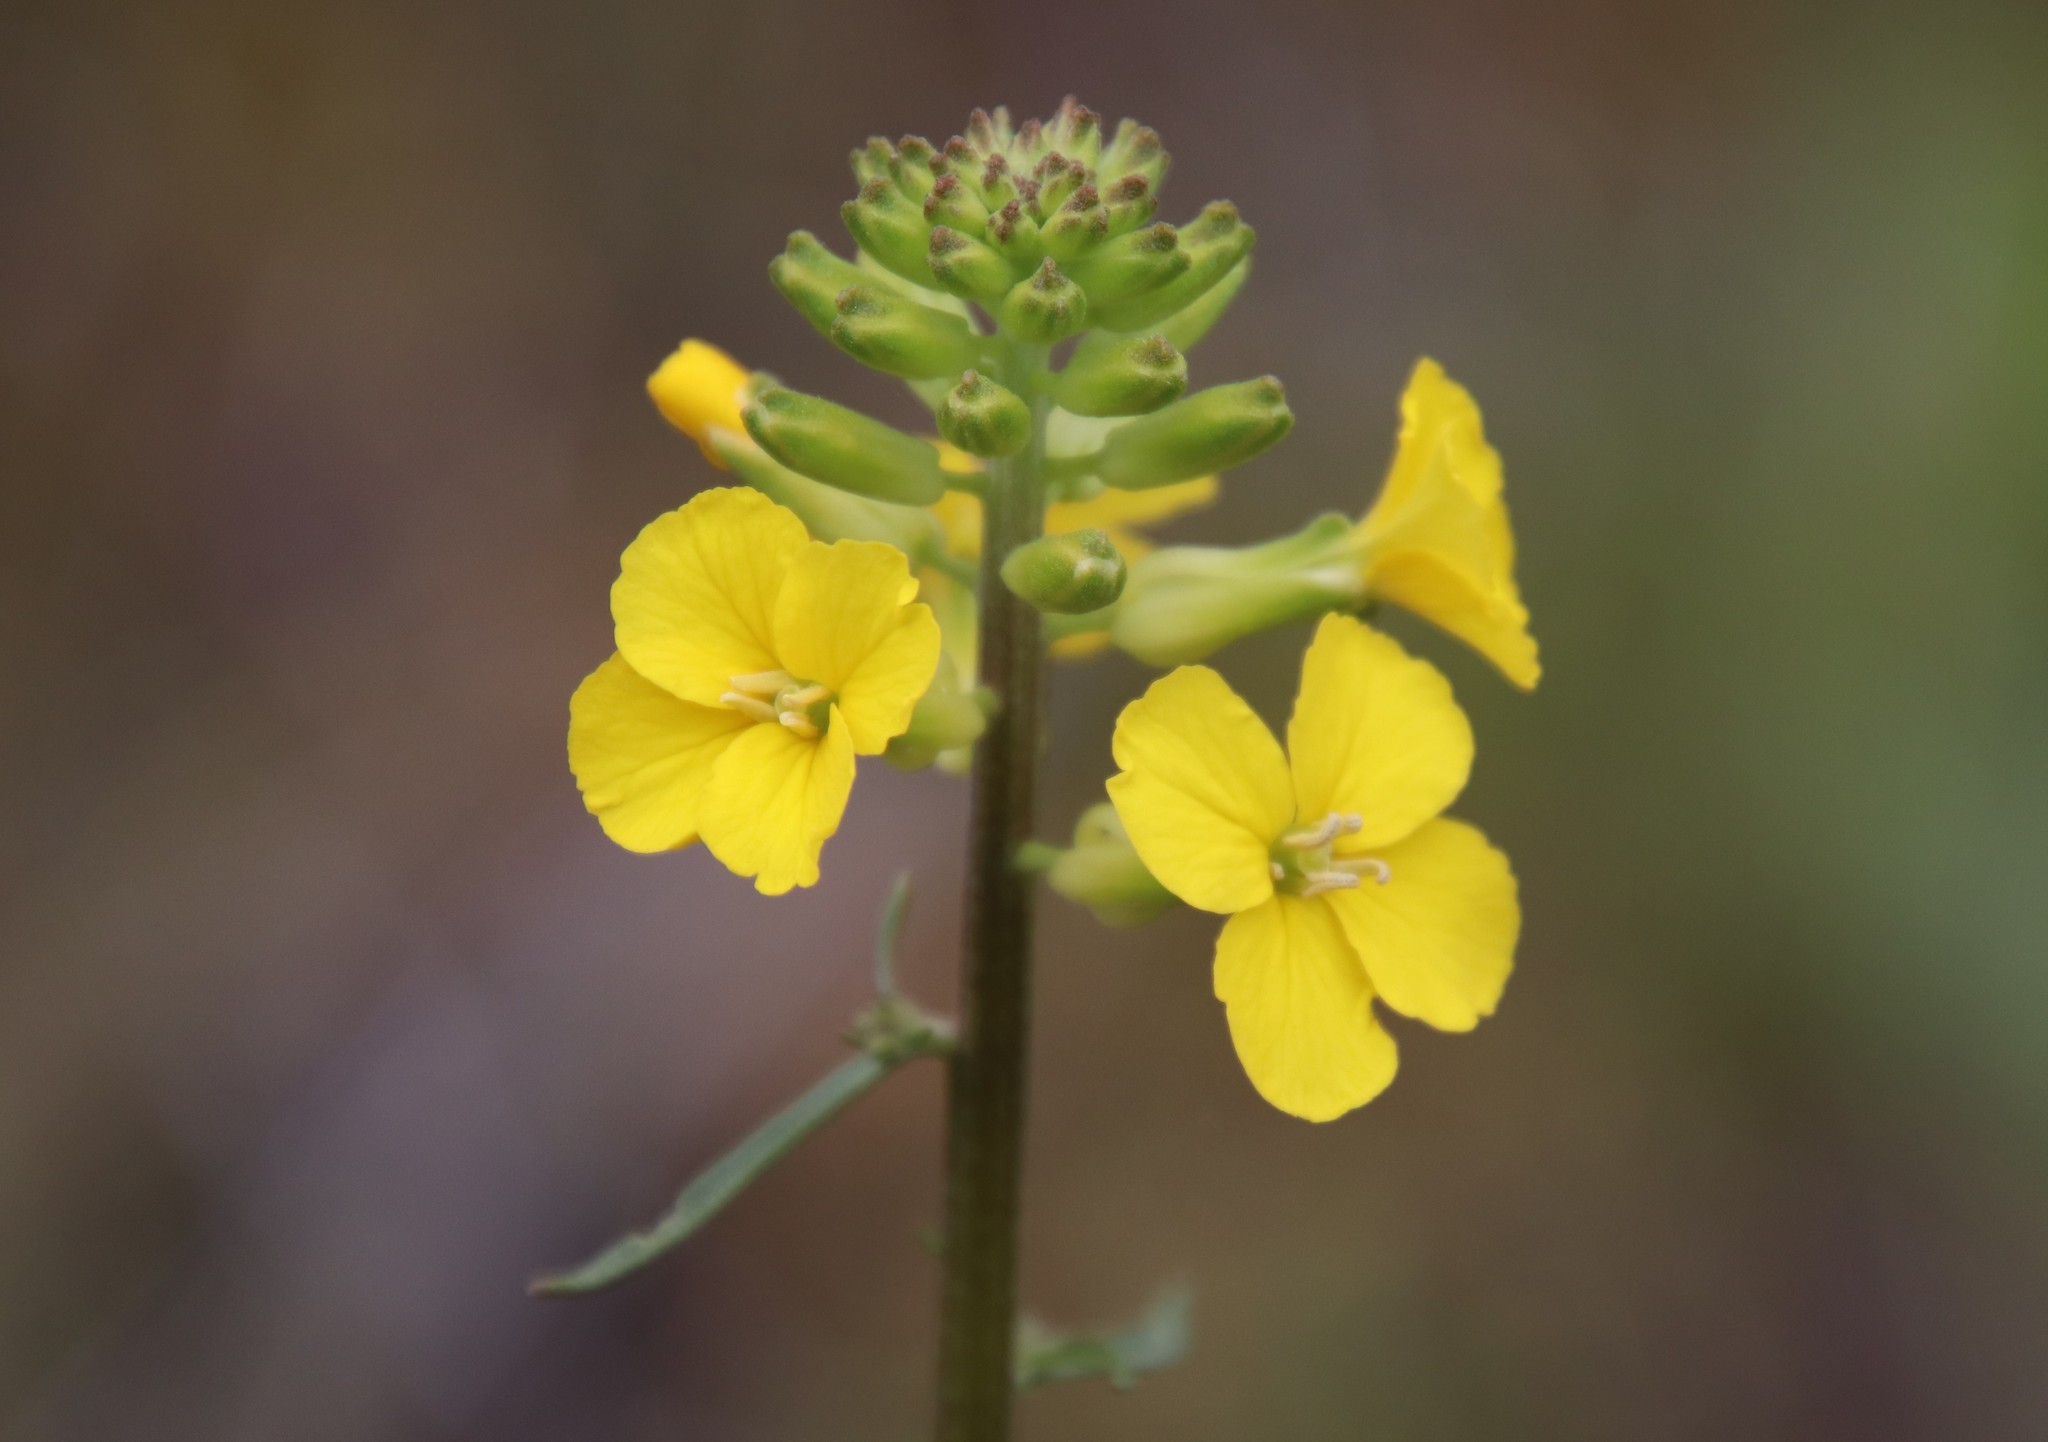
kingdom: Plantae
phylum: Tracheophyta
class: Magnoliopsida
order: Brassicales
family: Brassicaceae
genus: Erysimum
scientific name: Erysimum capitatum
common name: Western wallflower
